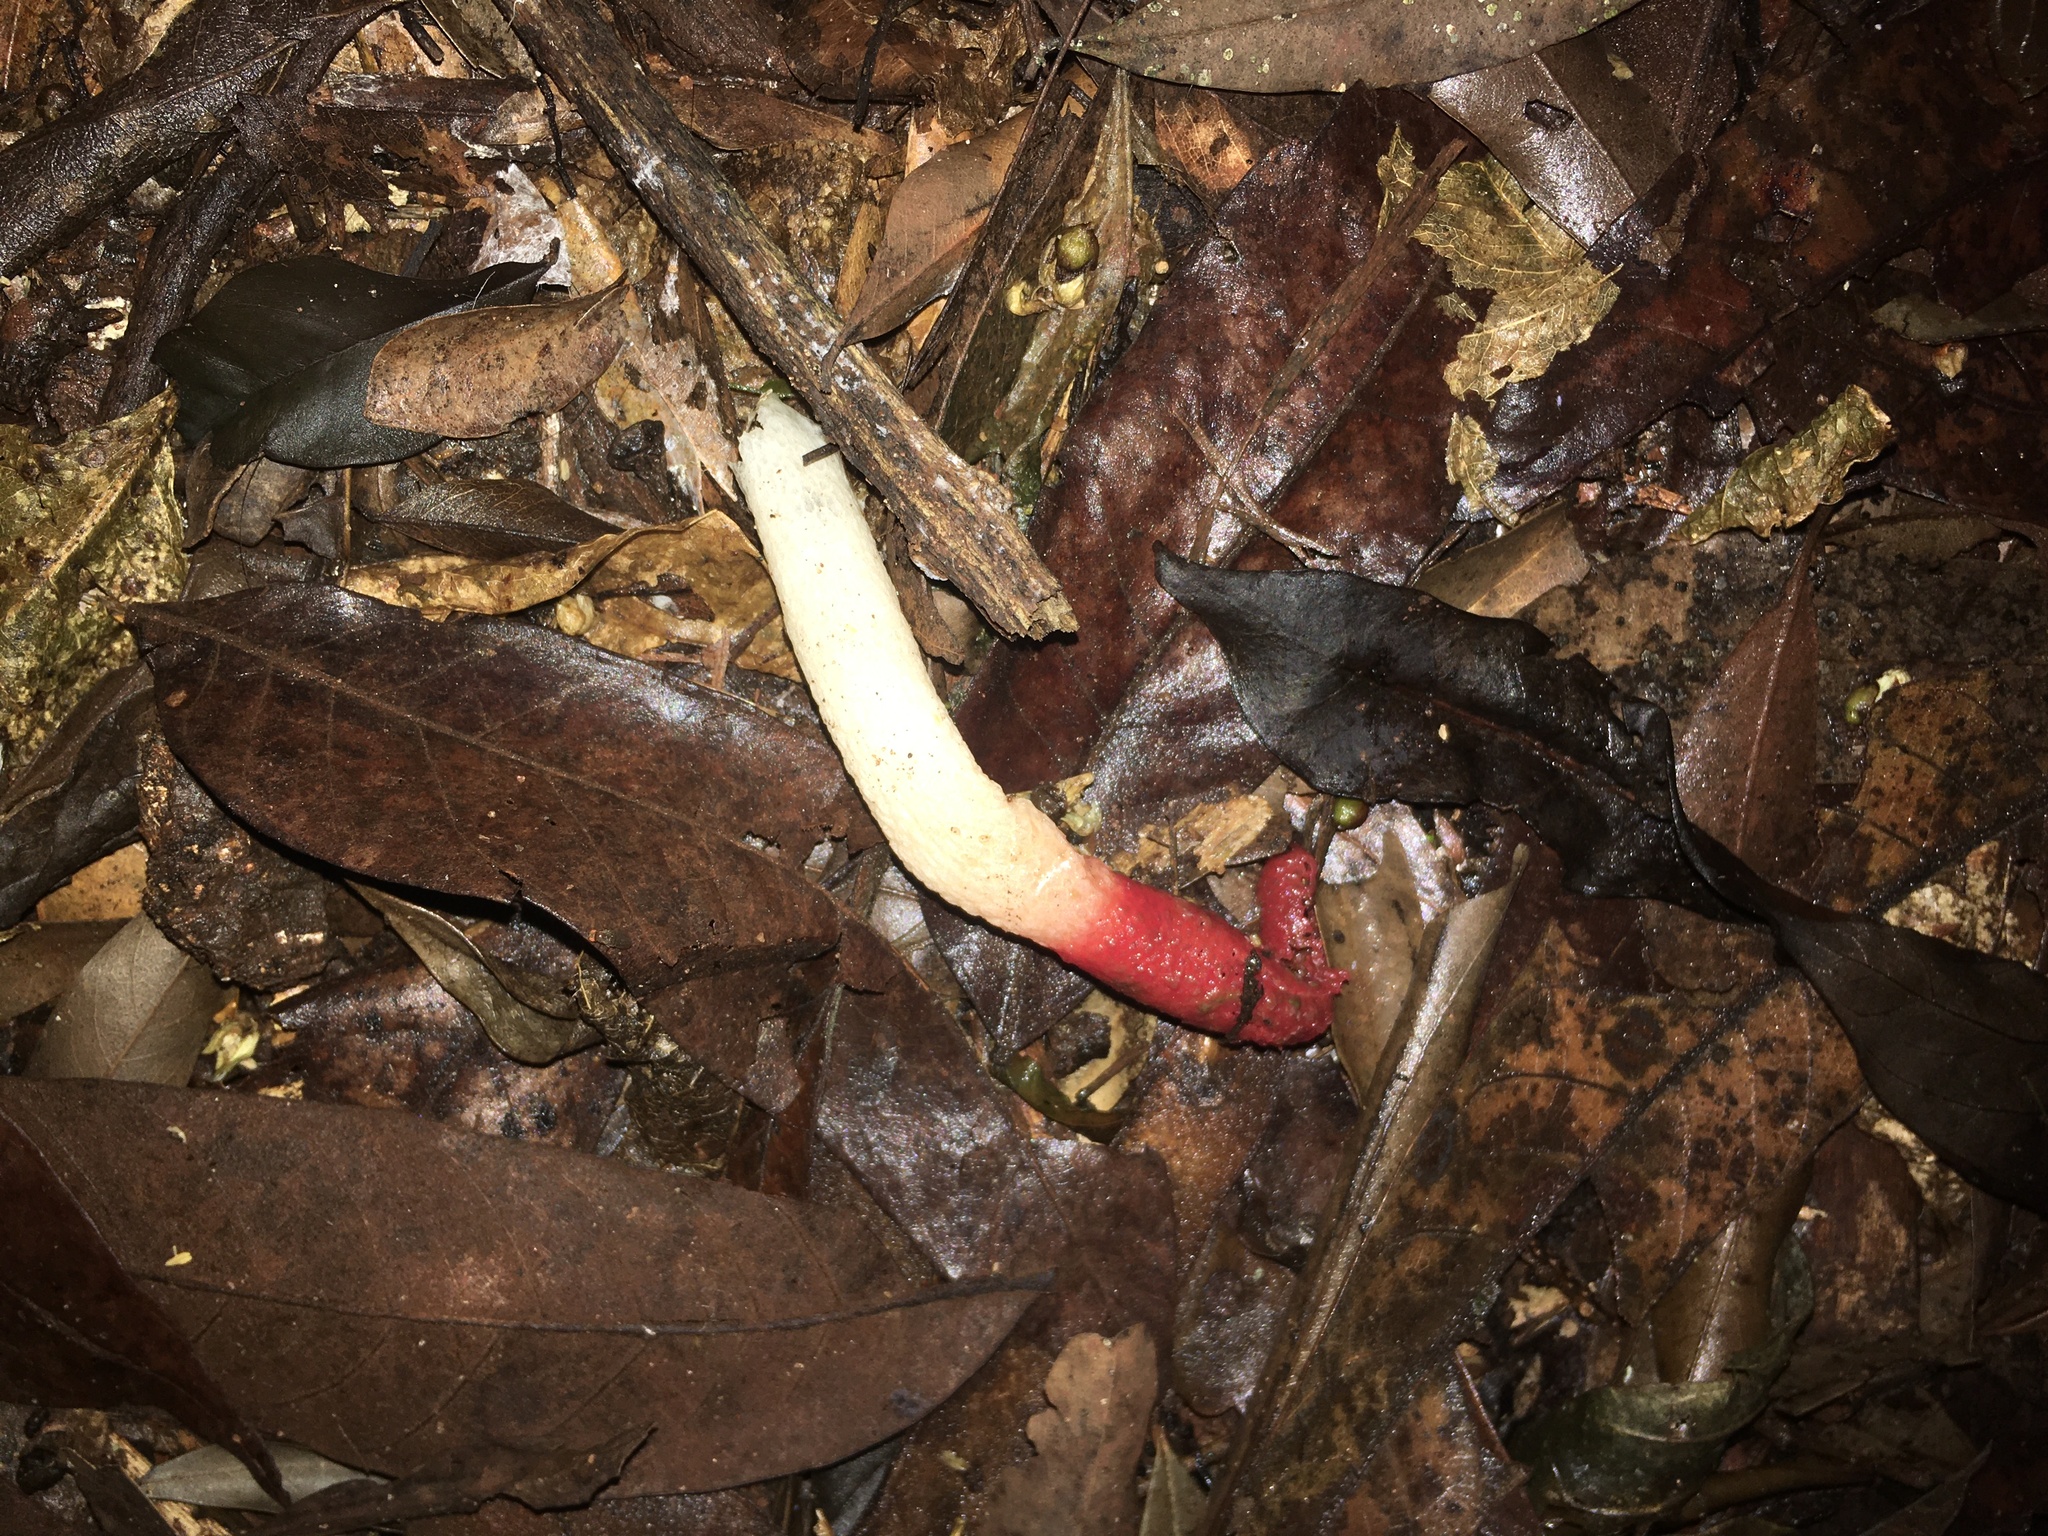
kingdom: Fungi
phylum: Basidiomycota
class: Agaricomycetes
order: Phallales
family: Phallaceae
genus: Mutinus
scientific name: Mutinus argentinus
